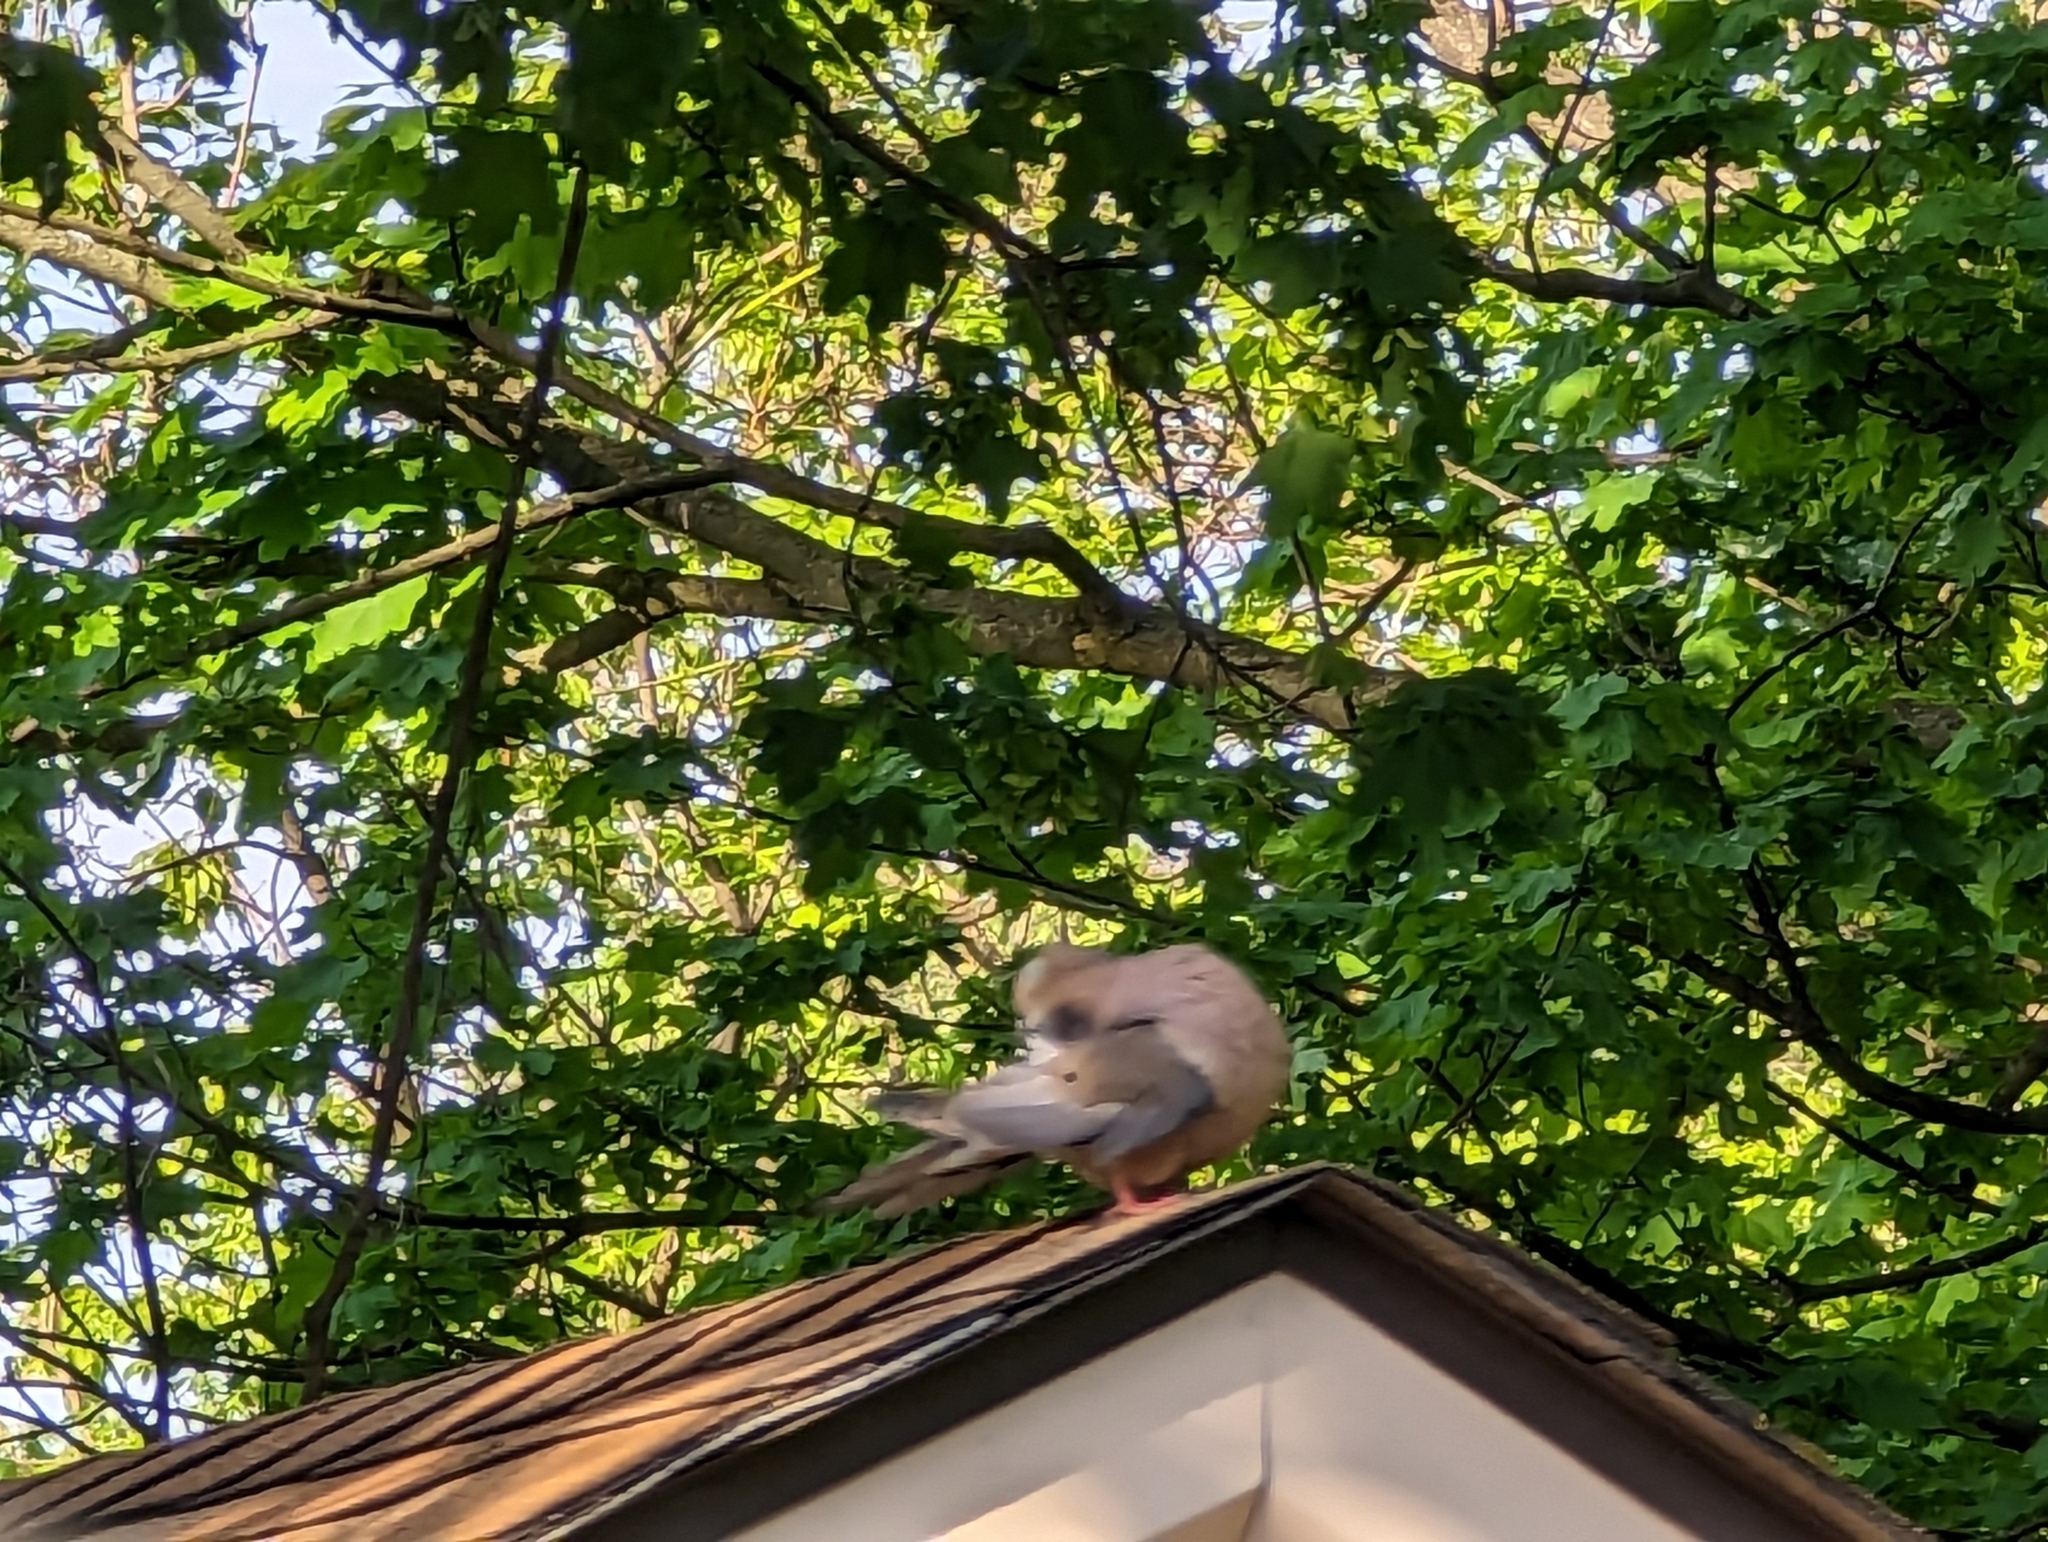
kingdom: Animalia
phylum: Chordata
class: Aves
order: Columbiformes
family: Columbidae
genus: Zenaida
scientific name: Zenaida macroura
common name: Mourning dove
